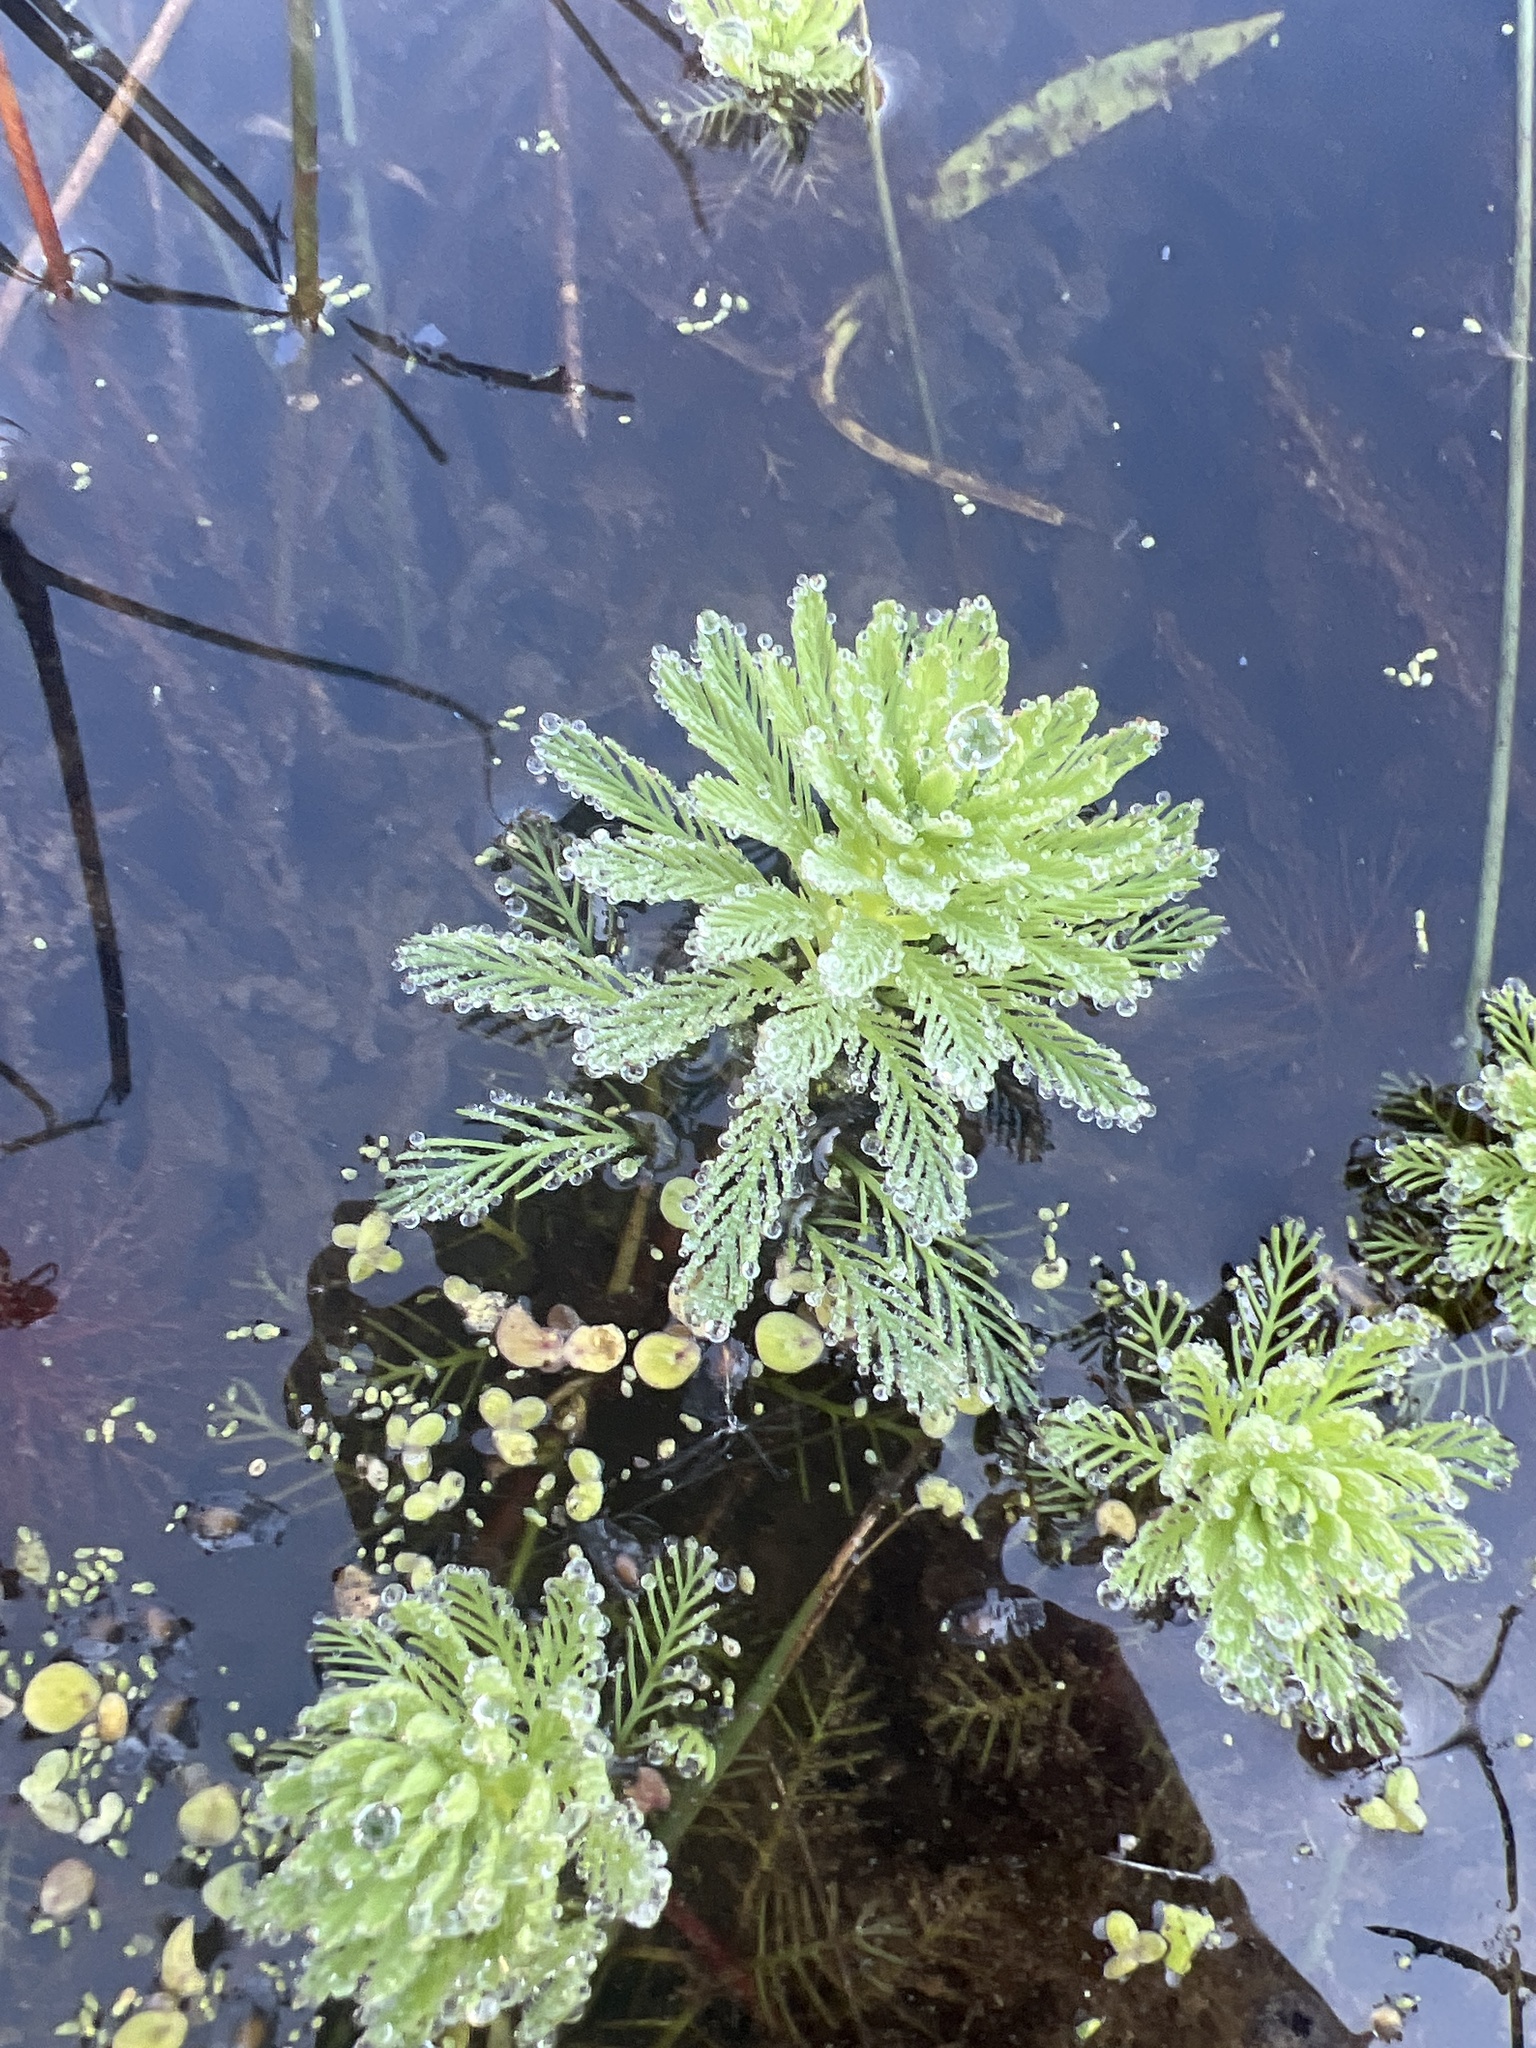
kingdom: Plantae
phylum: Tracheophyta
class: Magnoliopsida
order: Saxifragales
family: Haloragaceae
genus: Myriophyllum
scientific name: Myriophyllum aquaticum
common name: Parrot's feather
